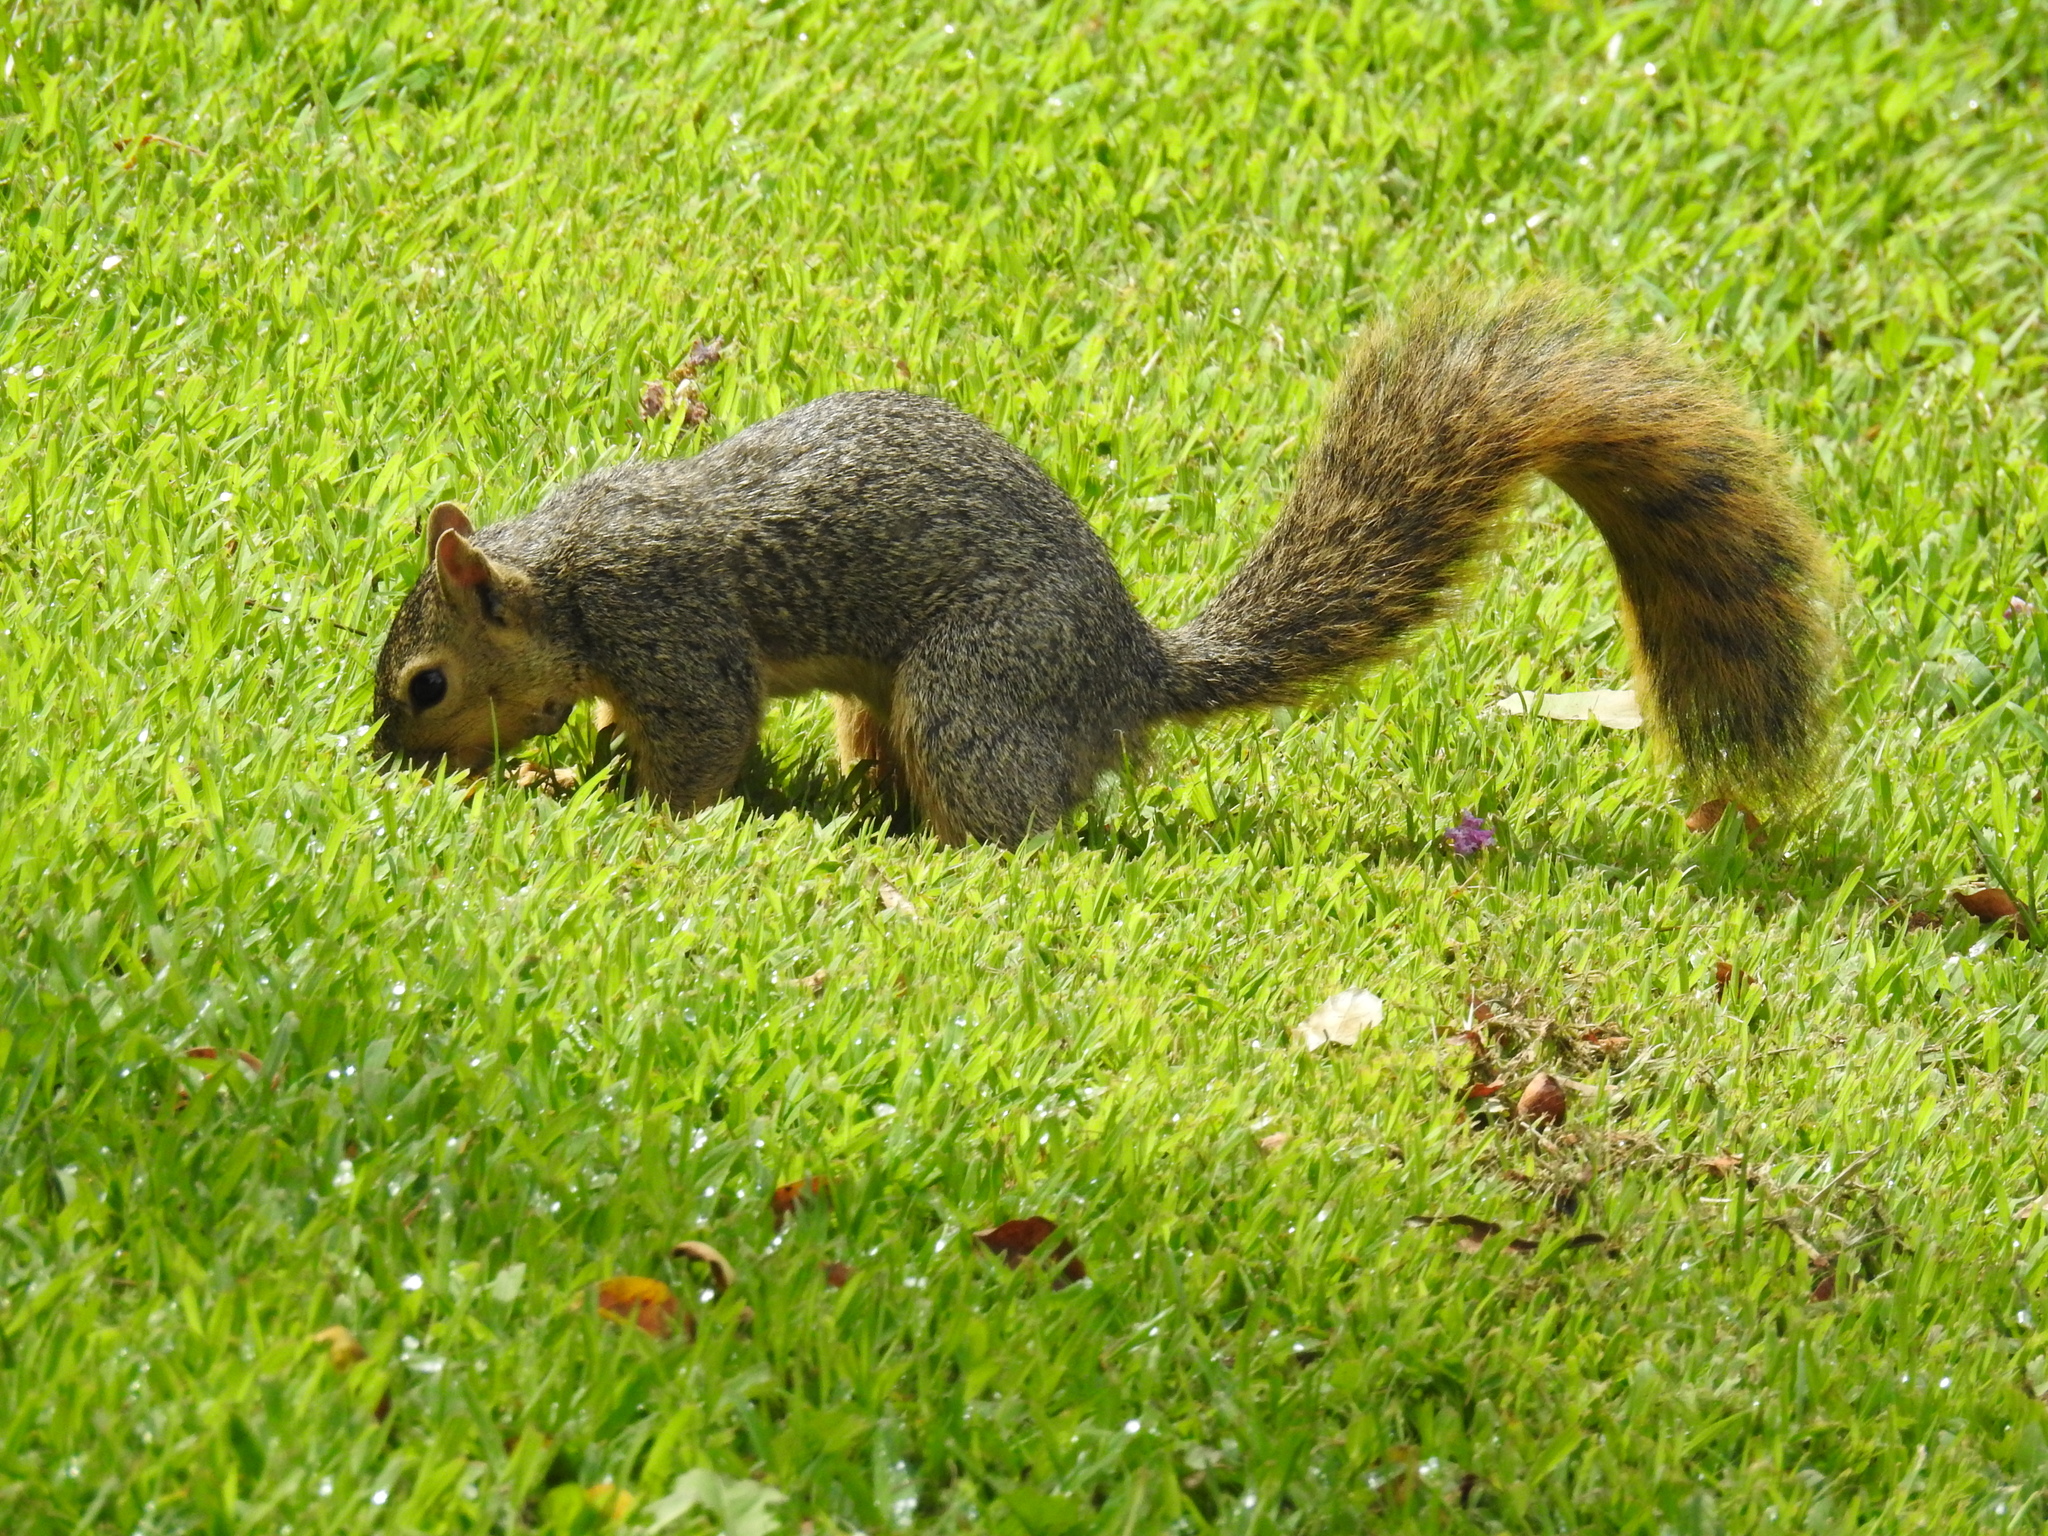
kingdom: Animalia
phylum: Chordata
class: Mammalia
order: Rodentia
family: Sciuridae
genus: Sciurus
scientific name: Sciurus niger
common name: Fox squirrel
